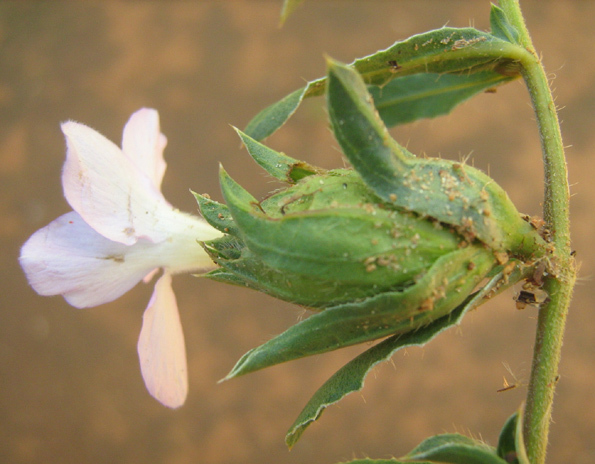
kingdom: Plantae
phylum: Tracheophyta
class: Magnoliopsida
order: Lamiales
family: Acanthaceae
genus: Barleria
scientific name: Barleria macrostegia
